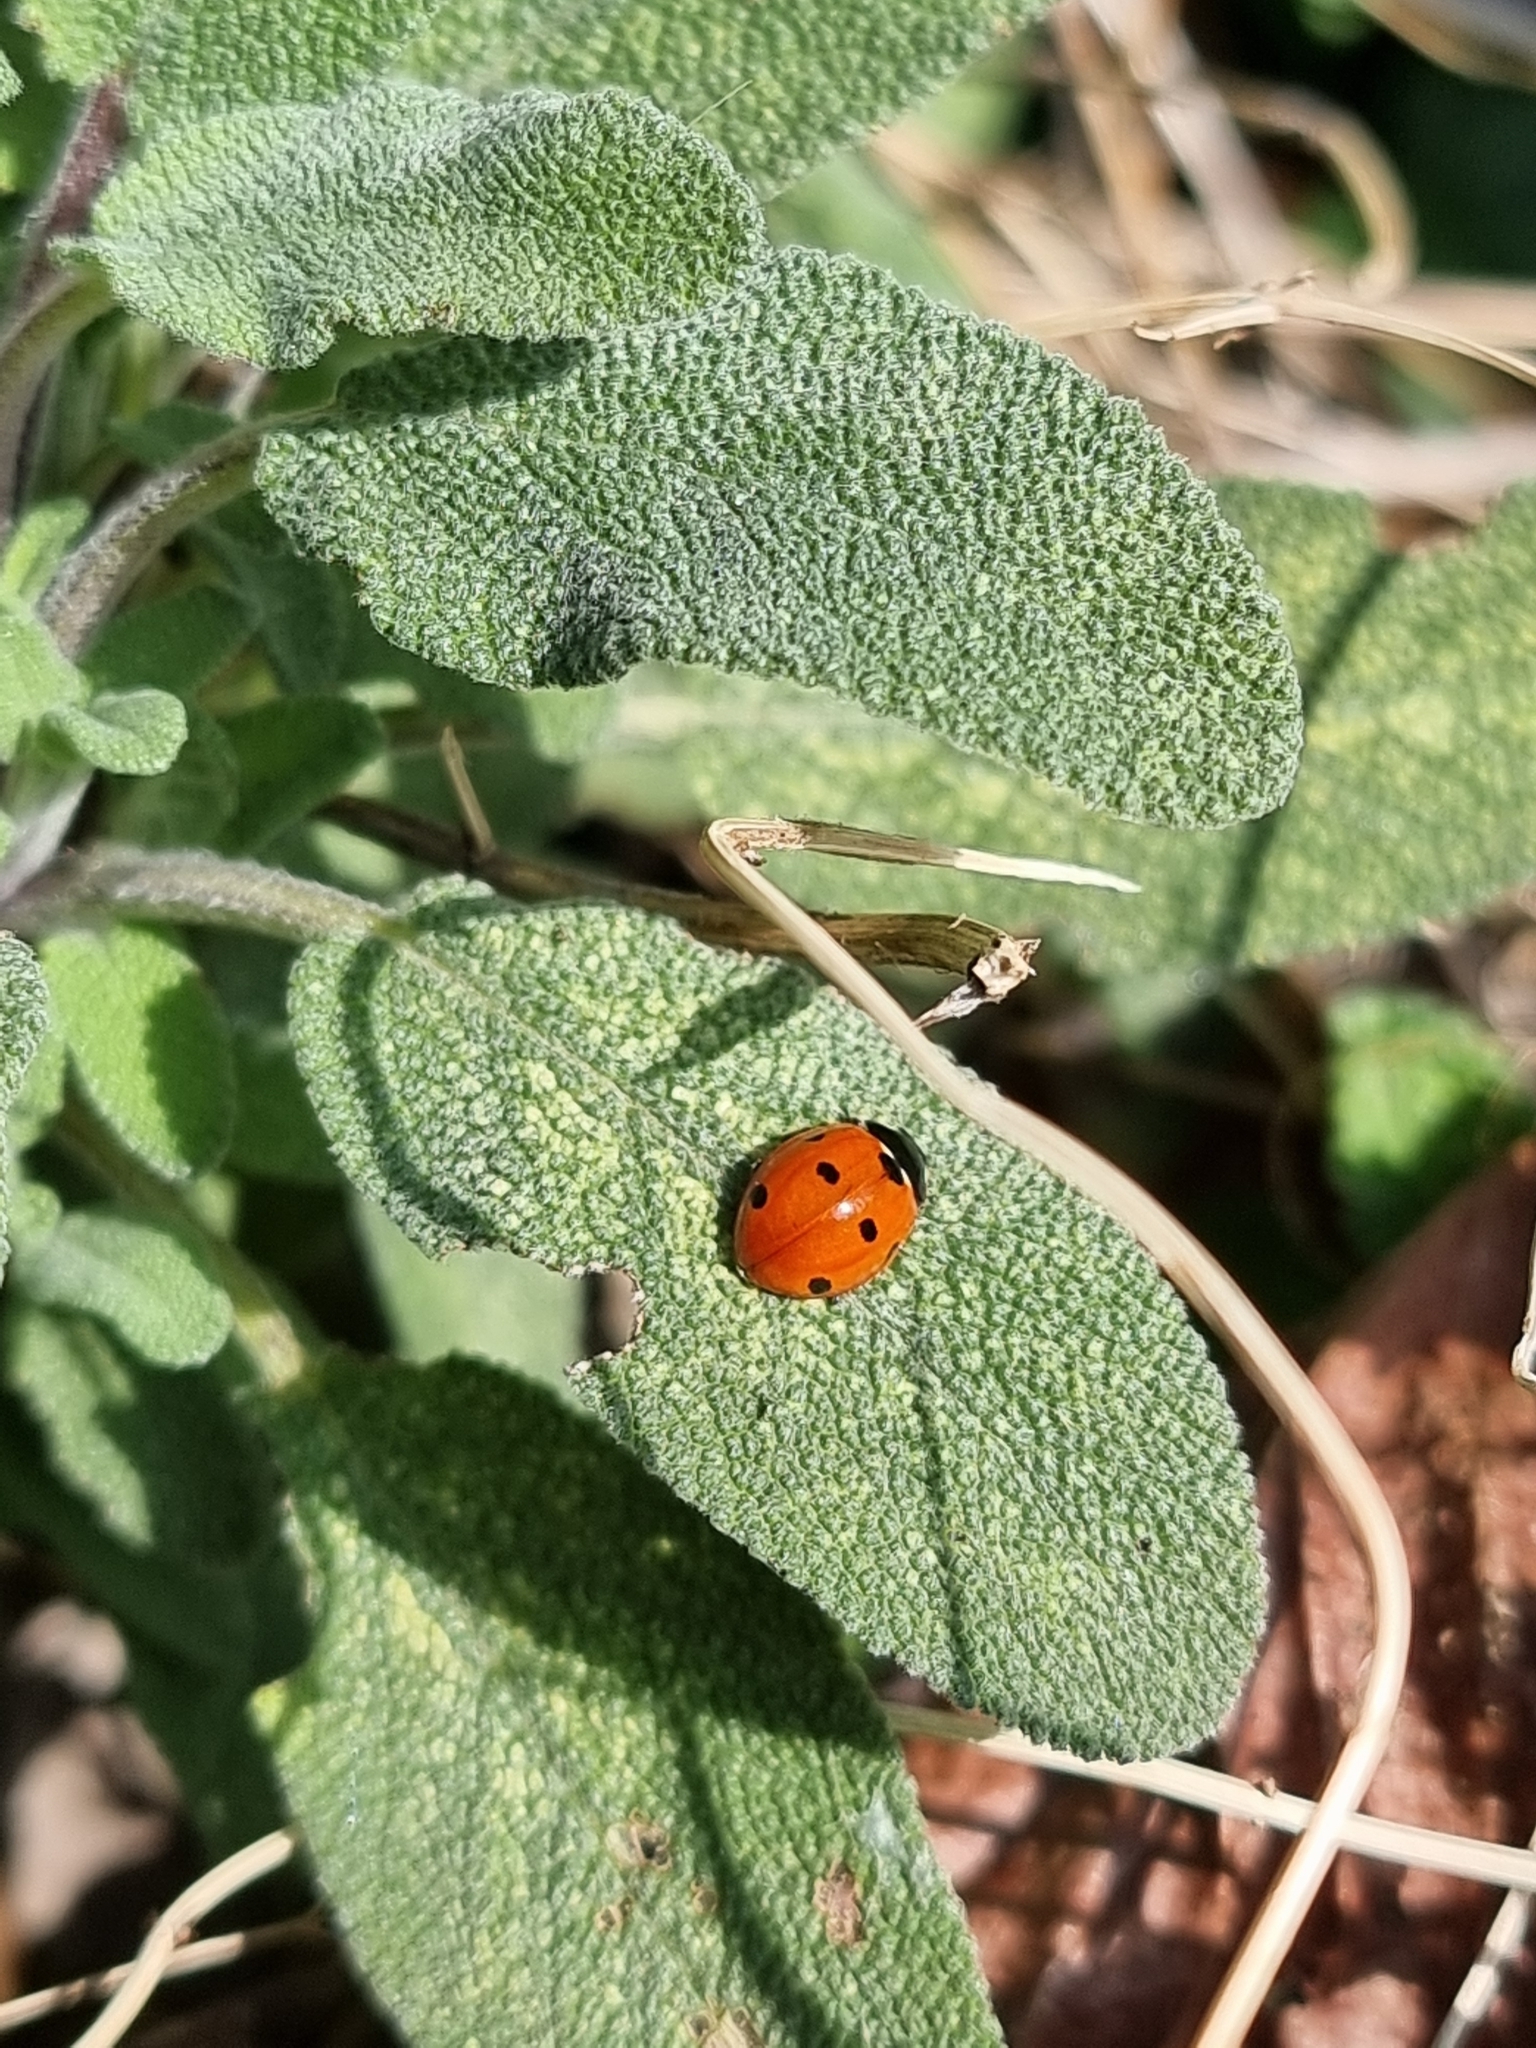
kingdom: Animalia
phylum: Arthropoda
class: Insecta
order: Coleoptera
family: Coccinellidae
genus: Coccinella
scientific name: Coccinella septempunctata
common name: Sevenspotted lady beetle
